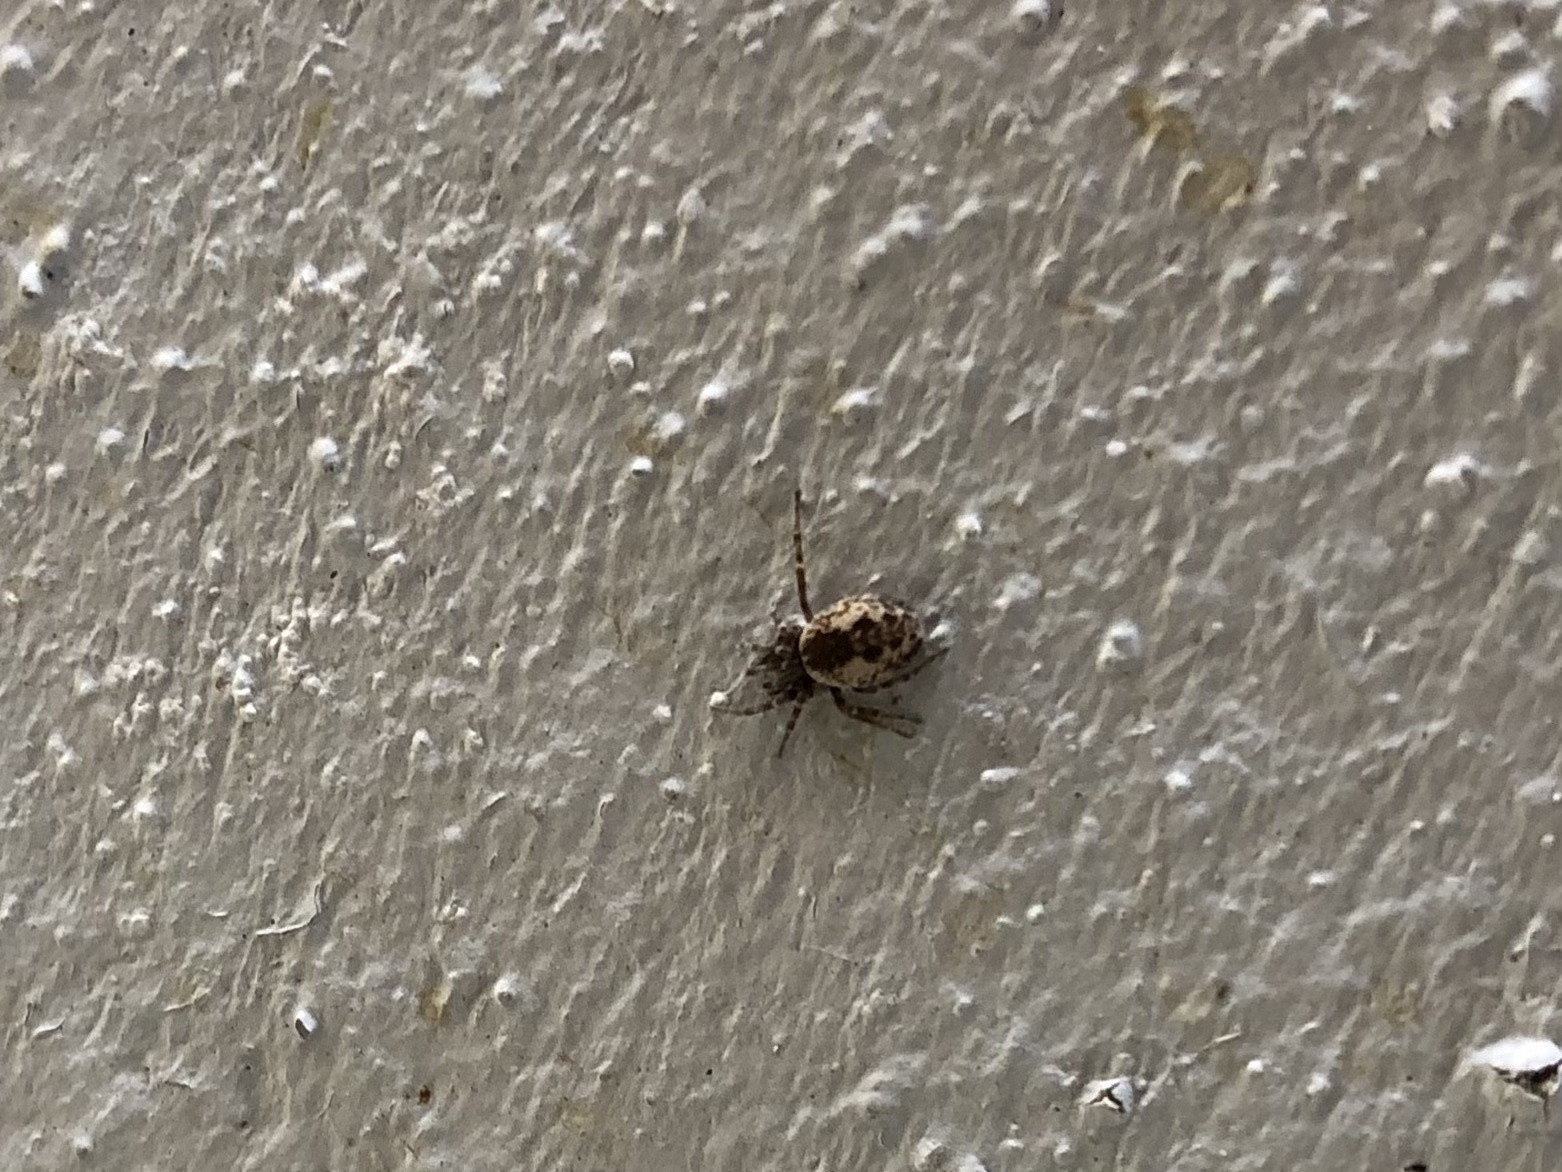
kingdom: Animalia
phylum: Arthropoda
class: Arachnida
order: Araneae
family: Dictynidae
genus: Brigittea
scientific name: Brigittea civica
